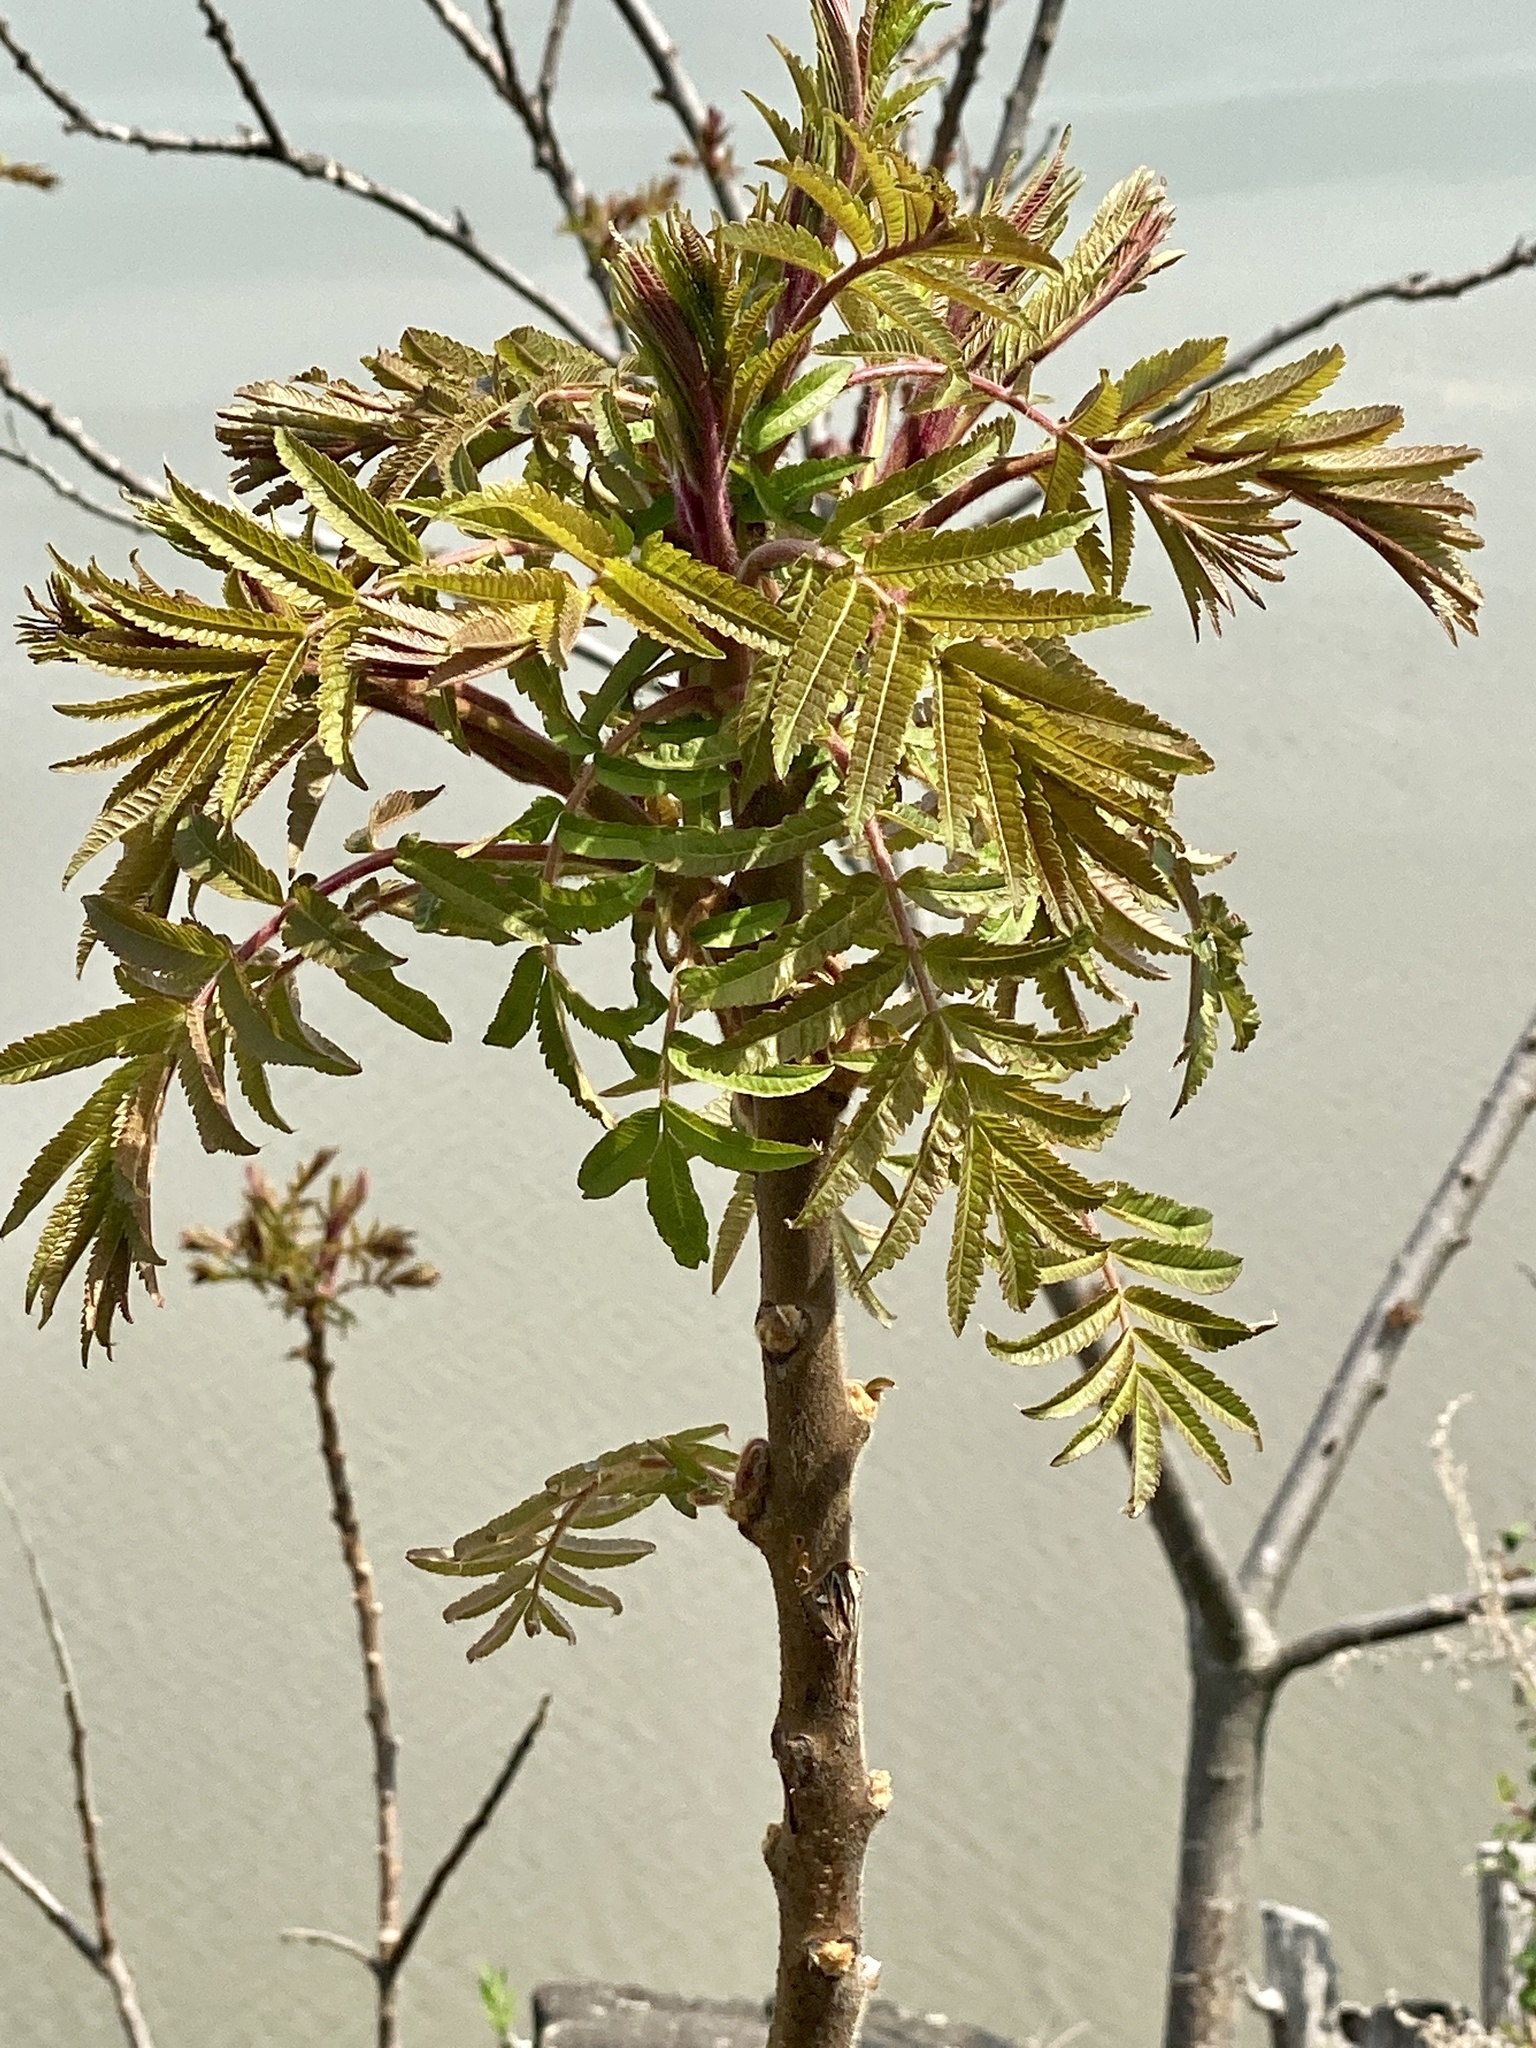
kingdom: Plantae
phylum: Tracheophyta
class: Magnoliopsida
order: Sapindales
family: Anacardiaceae
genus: Rhus
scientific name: Rhus typhina
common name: Staghorn sumac
